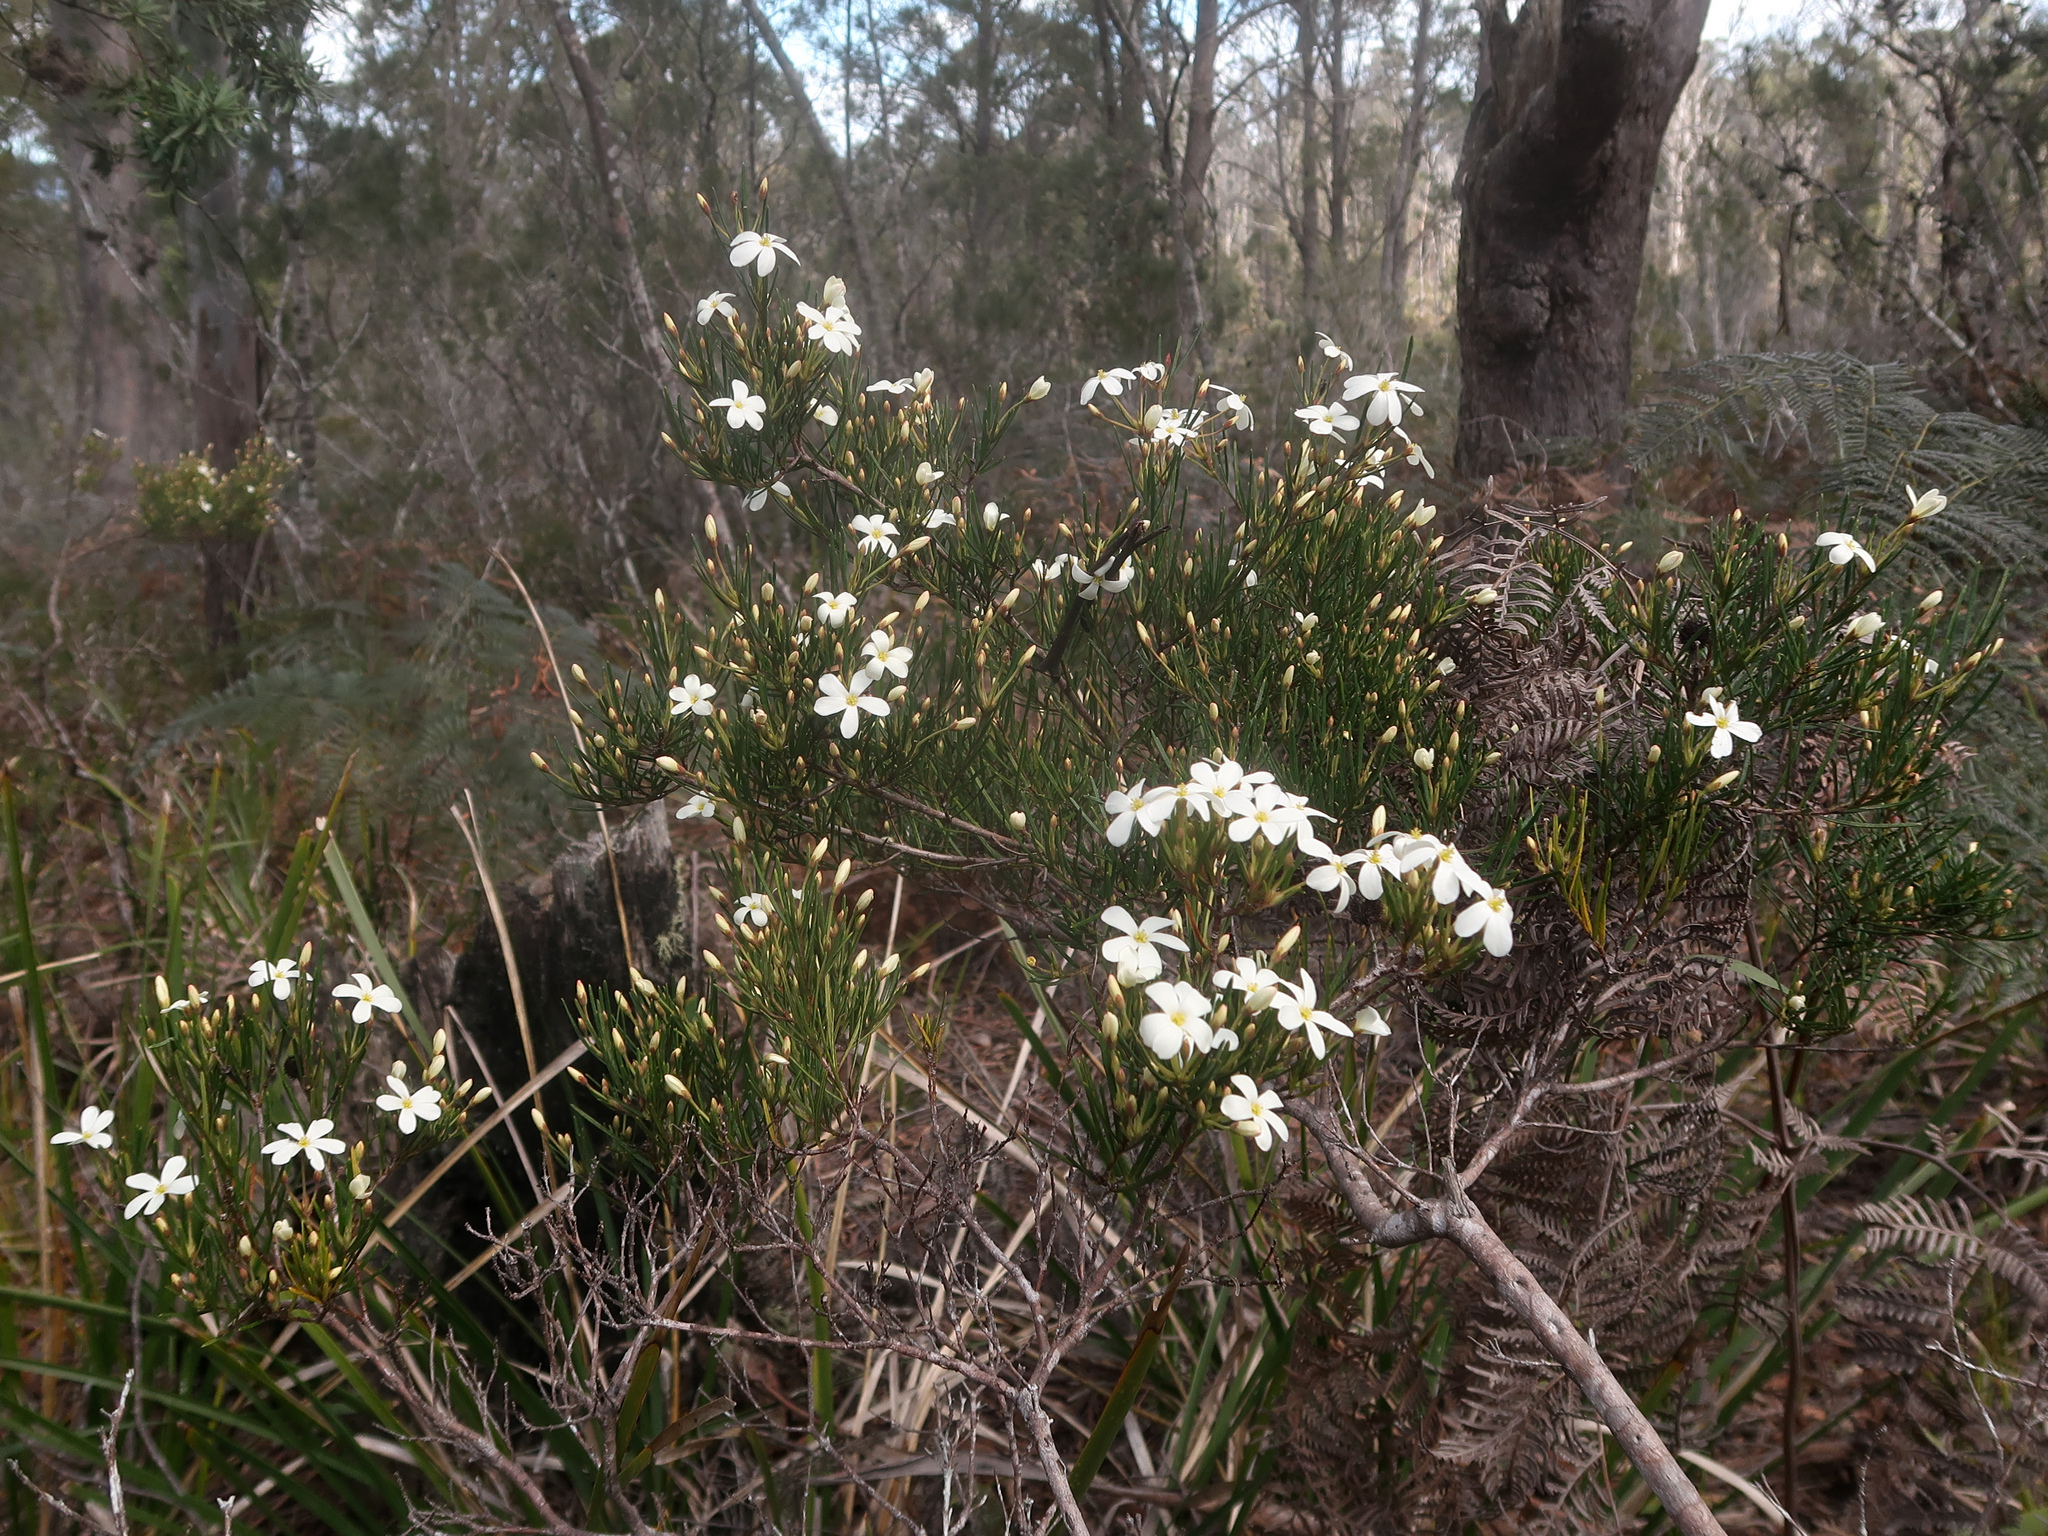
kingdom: Plantae
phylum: Tracheophyta
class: Magnoliopsida
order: Malpighiales
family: Euphorbiaceae
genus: Ricinocarpos
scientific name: Ricinocarpos pinifolius
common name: Weddingbush
